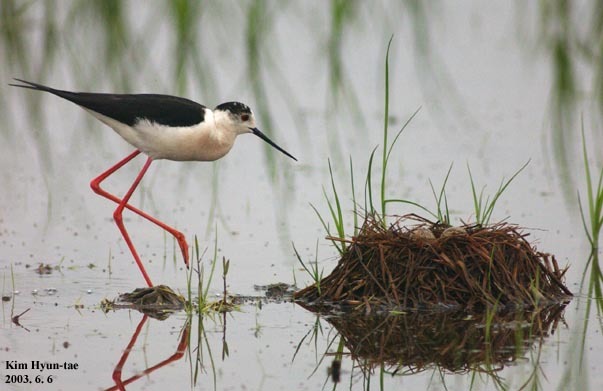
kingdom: Animalia
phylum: Chordata
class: Aves
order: Charadriiformes
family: Recurvirostridae
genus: Himantopus
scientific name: Himantopus himantopus
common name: Black-winged stilt
